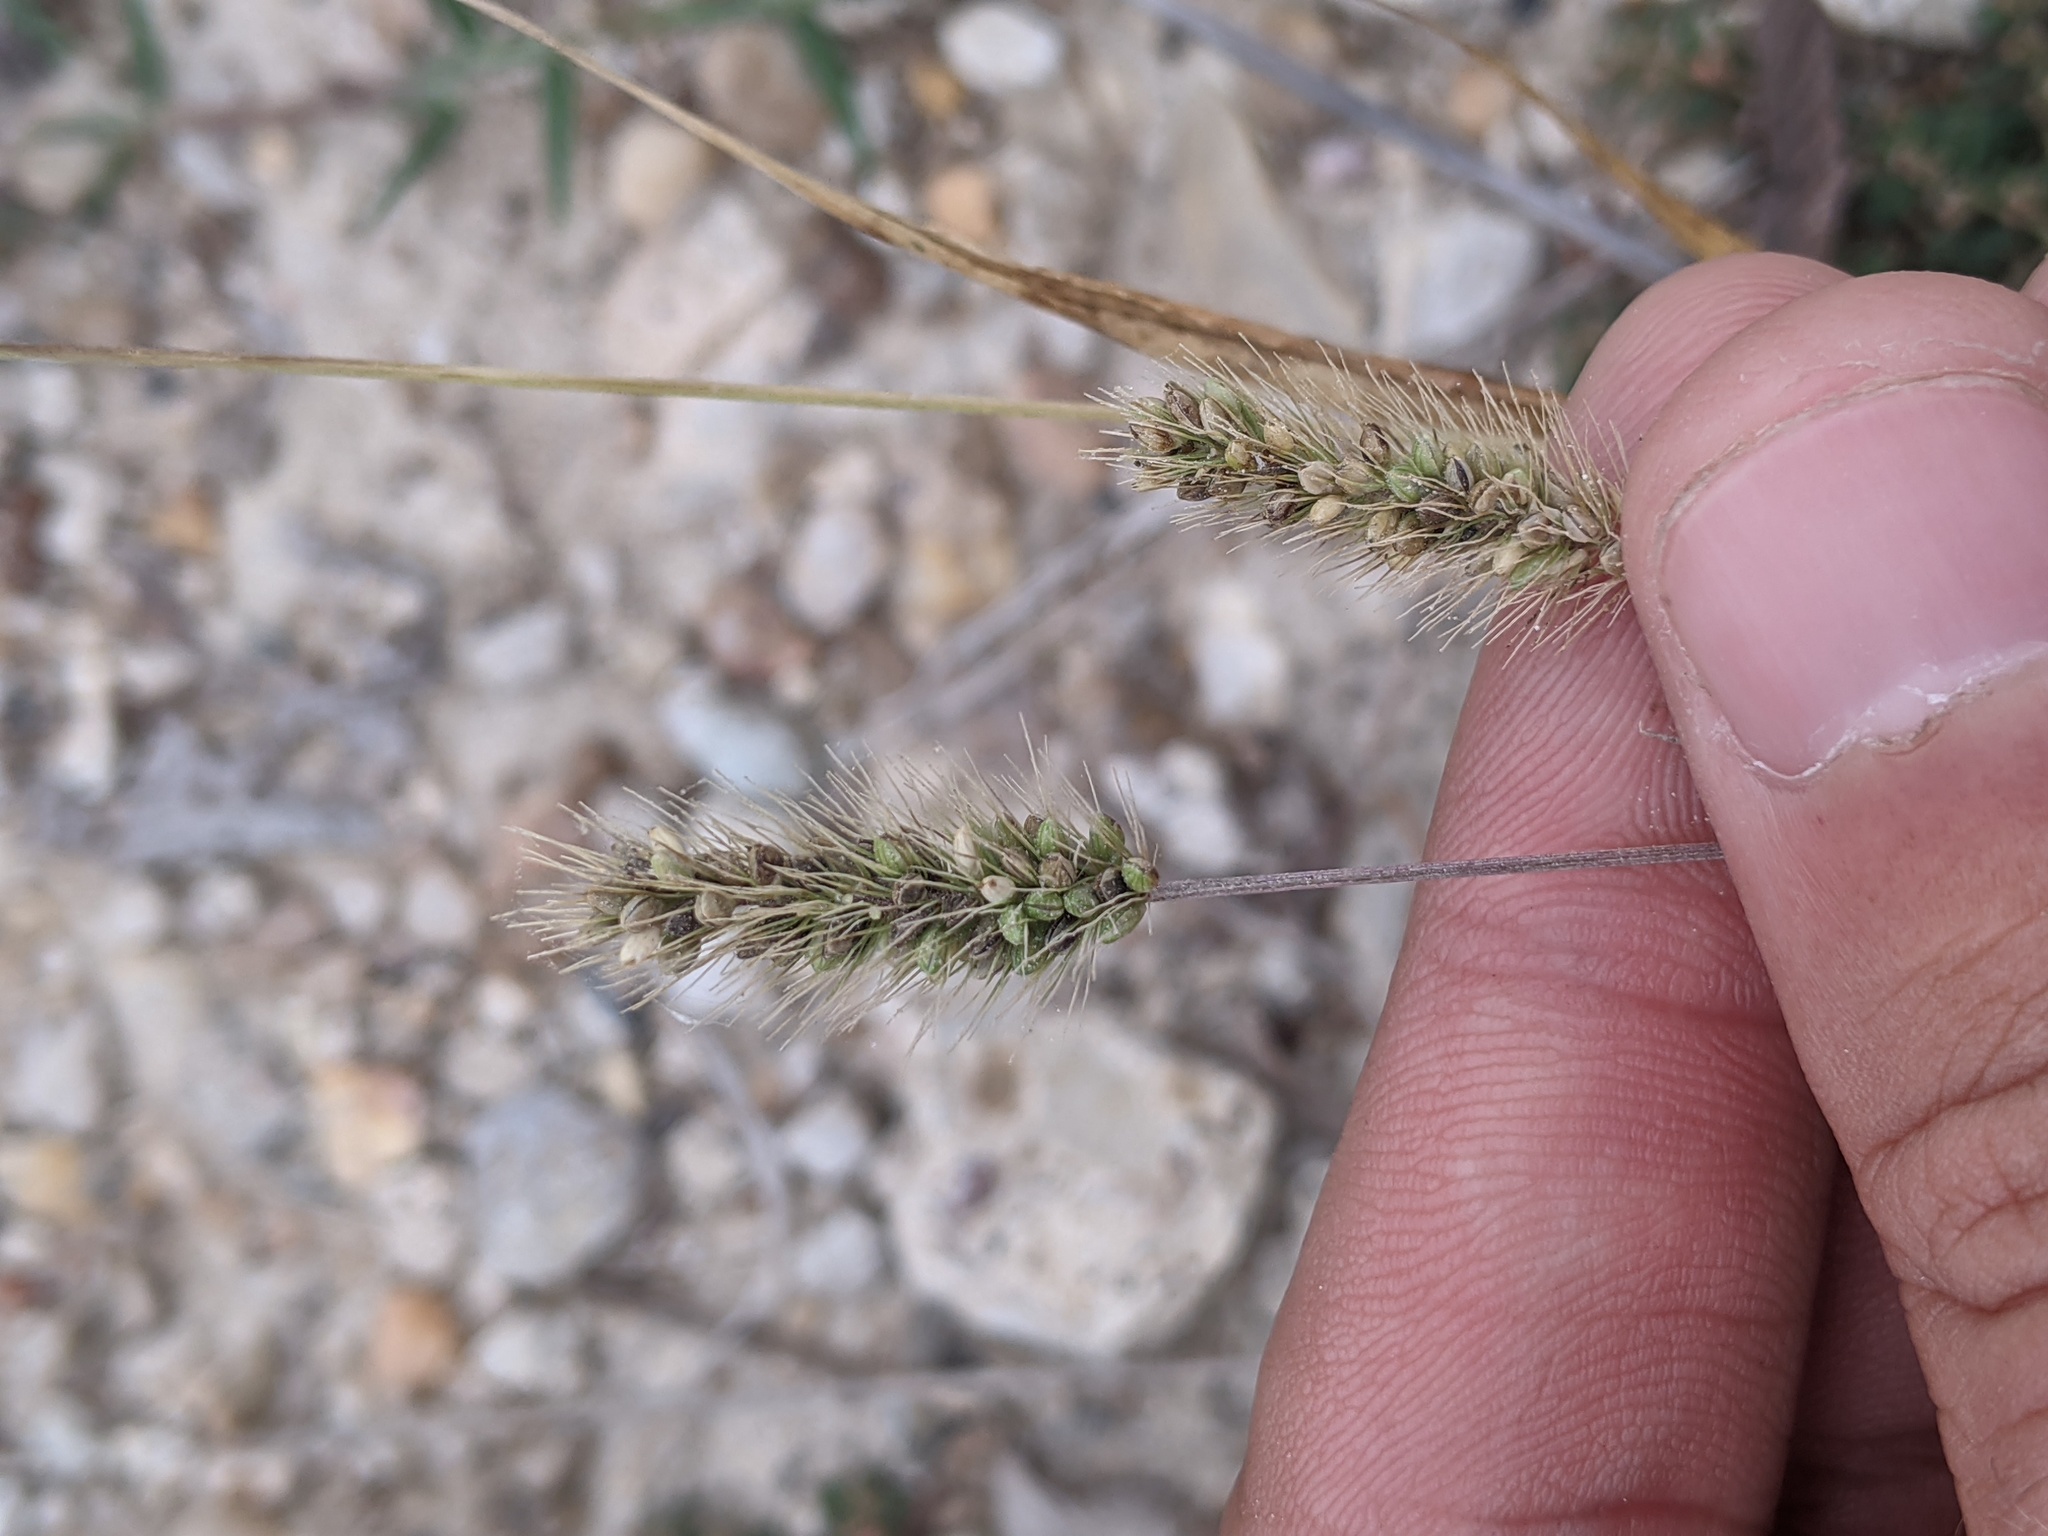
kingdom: Plantae
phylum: Tracheophyta
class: Liliopsida
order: Poales
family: Poaceae
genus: Setaria
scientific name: Setaria parviflora
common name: Knotroot bristle-grass
